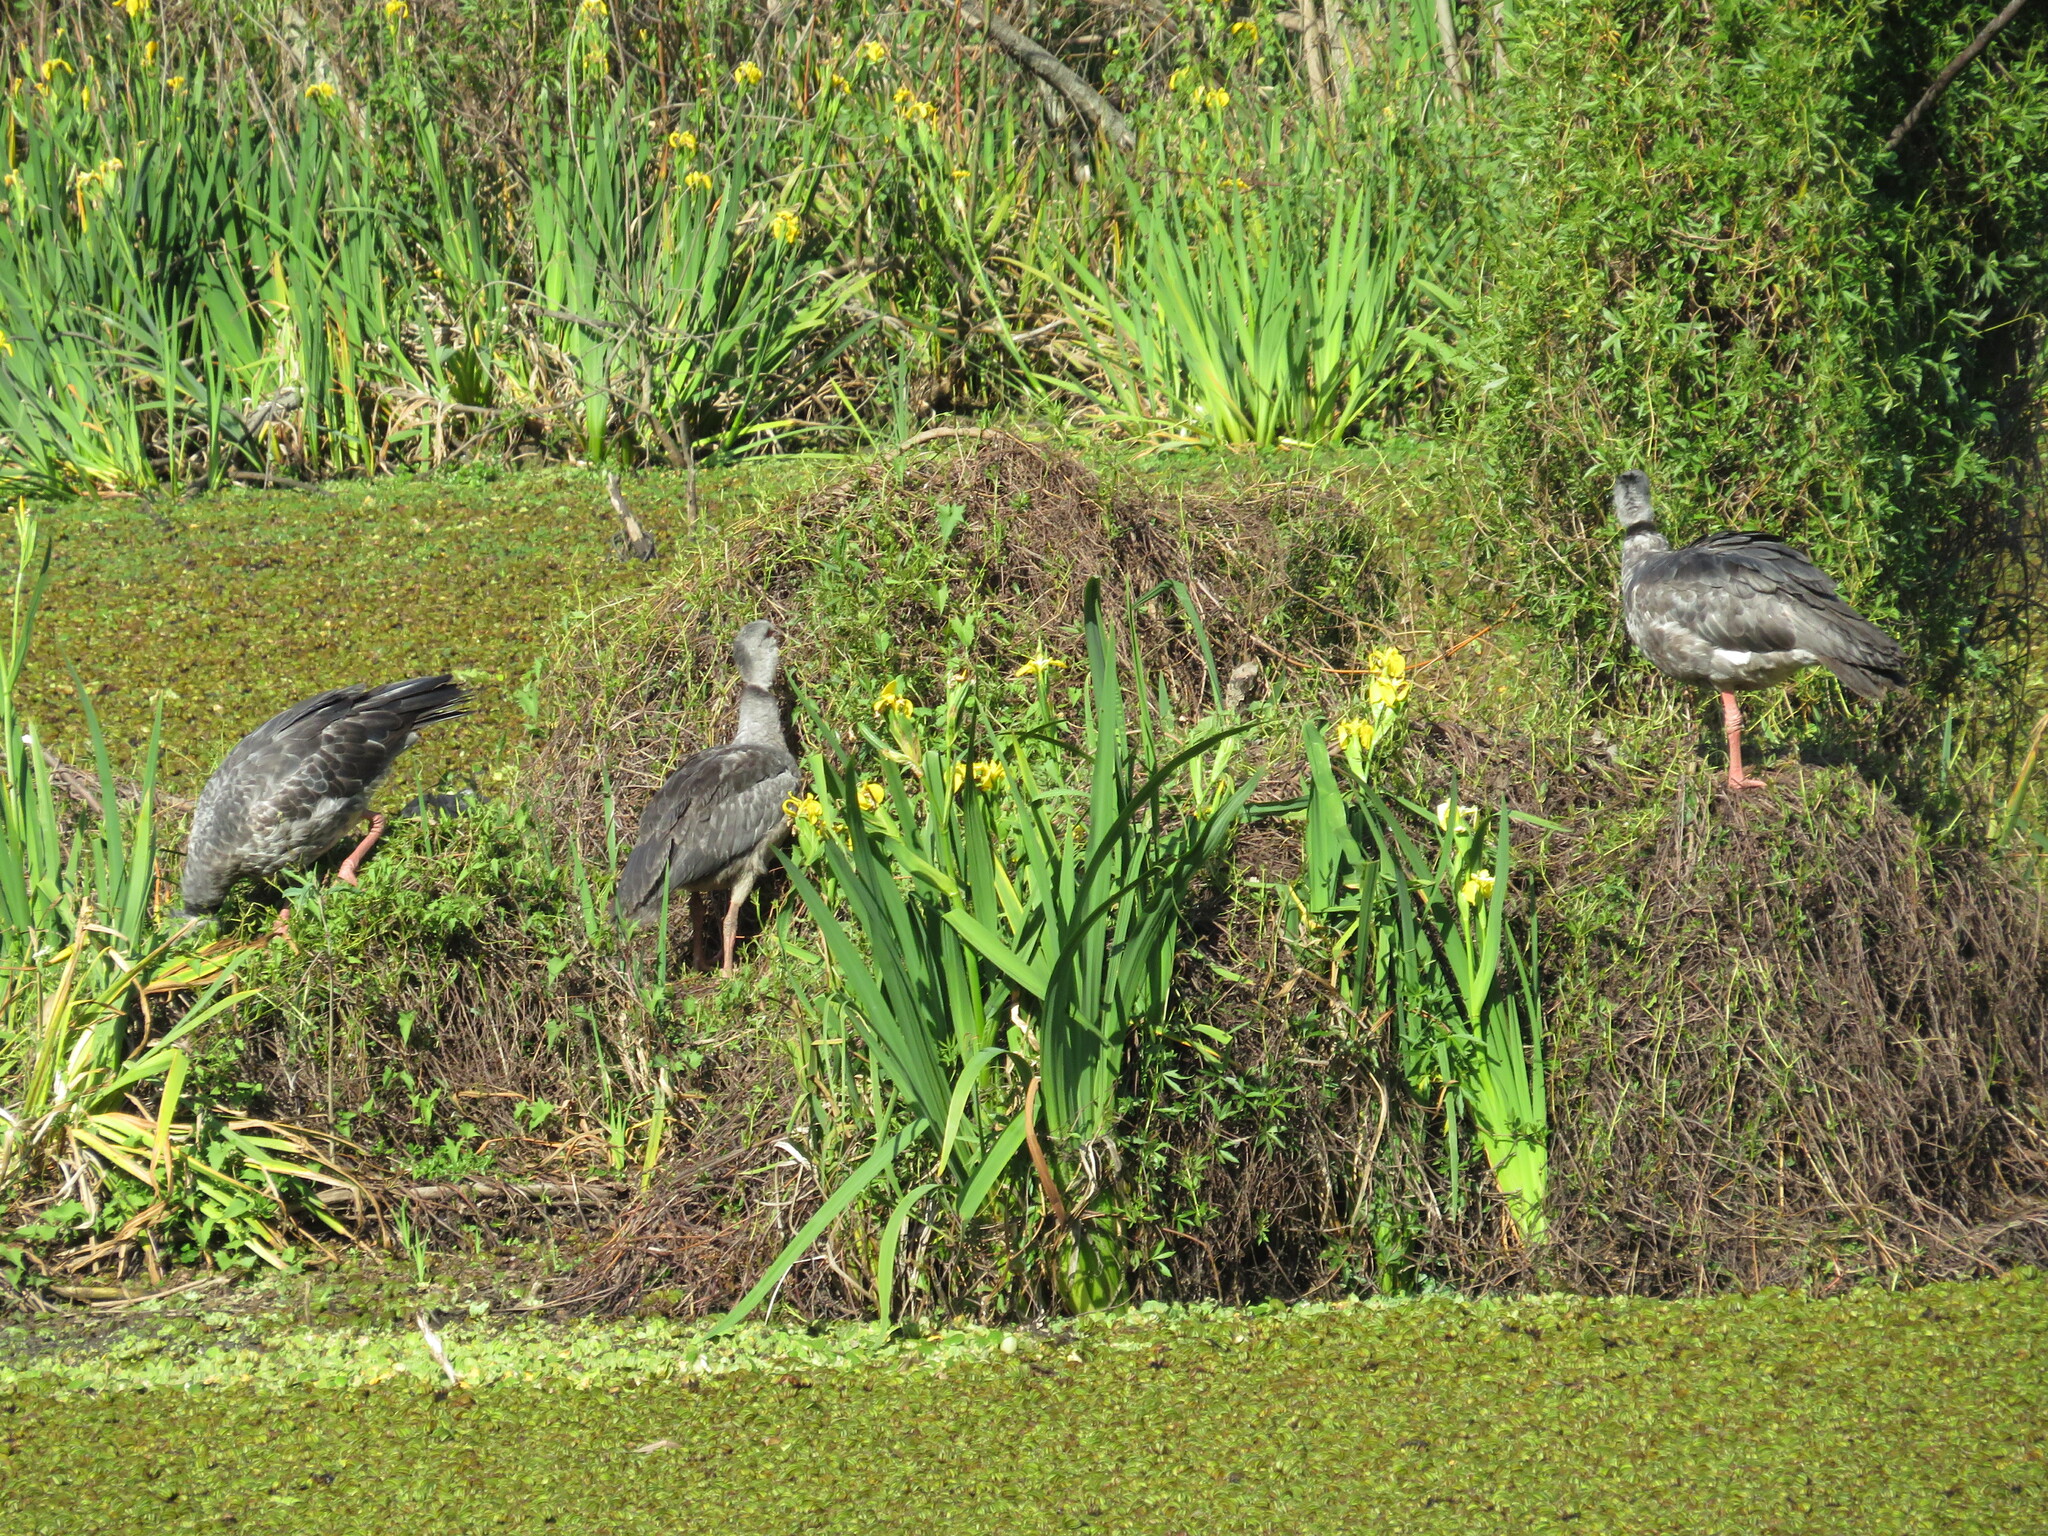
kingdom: Animalia
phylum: Chordata
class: Aves
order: Anseriformes
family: Anhimidae
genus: Chauna
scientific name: Chauna torquata
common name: Southern screamer
